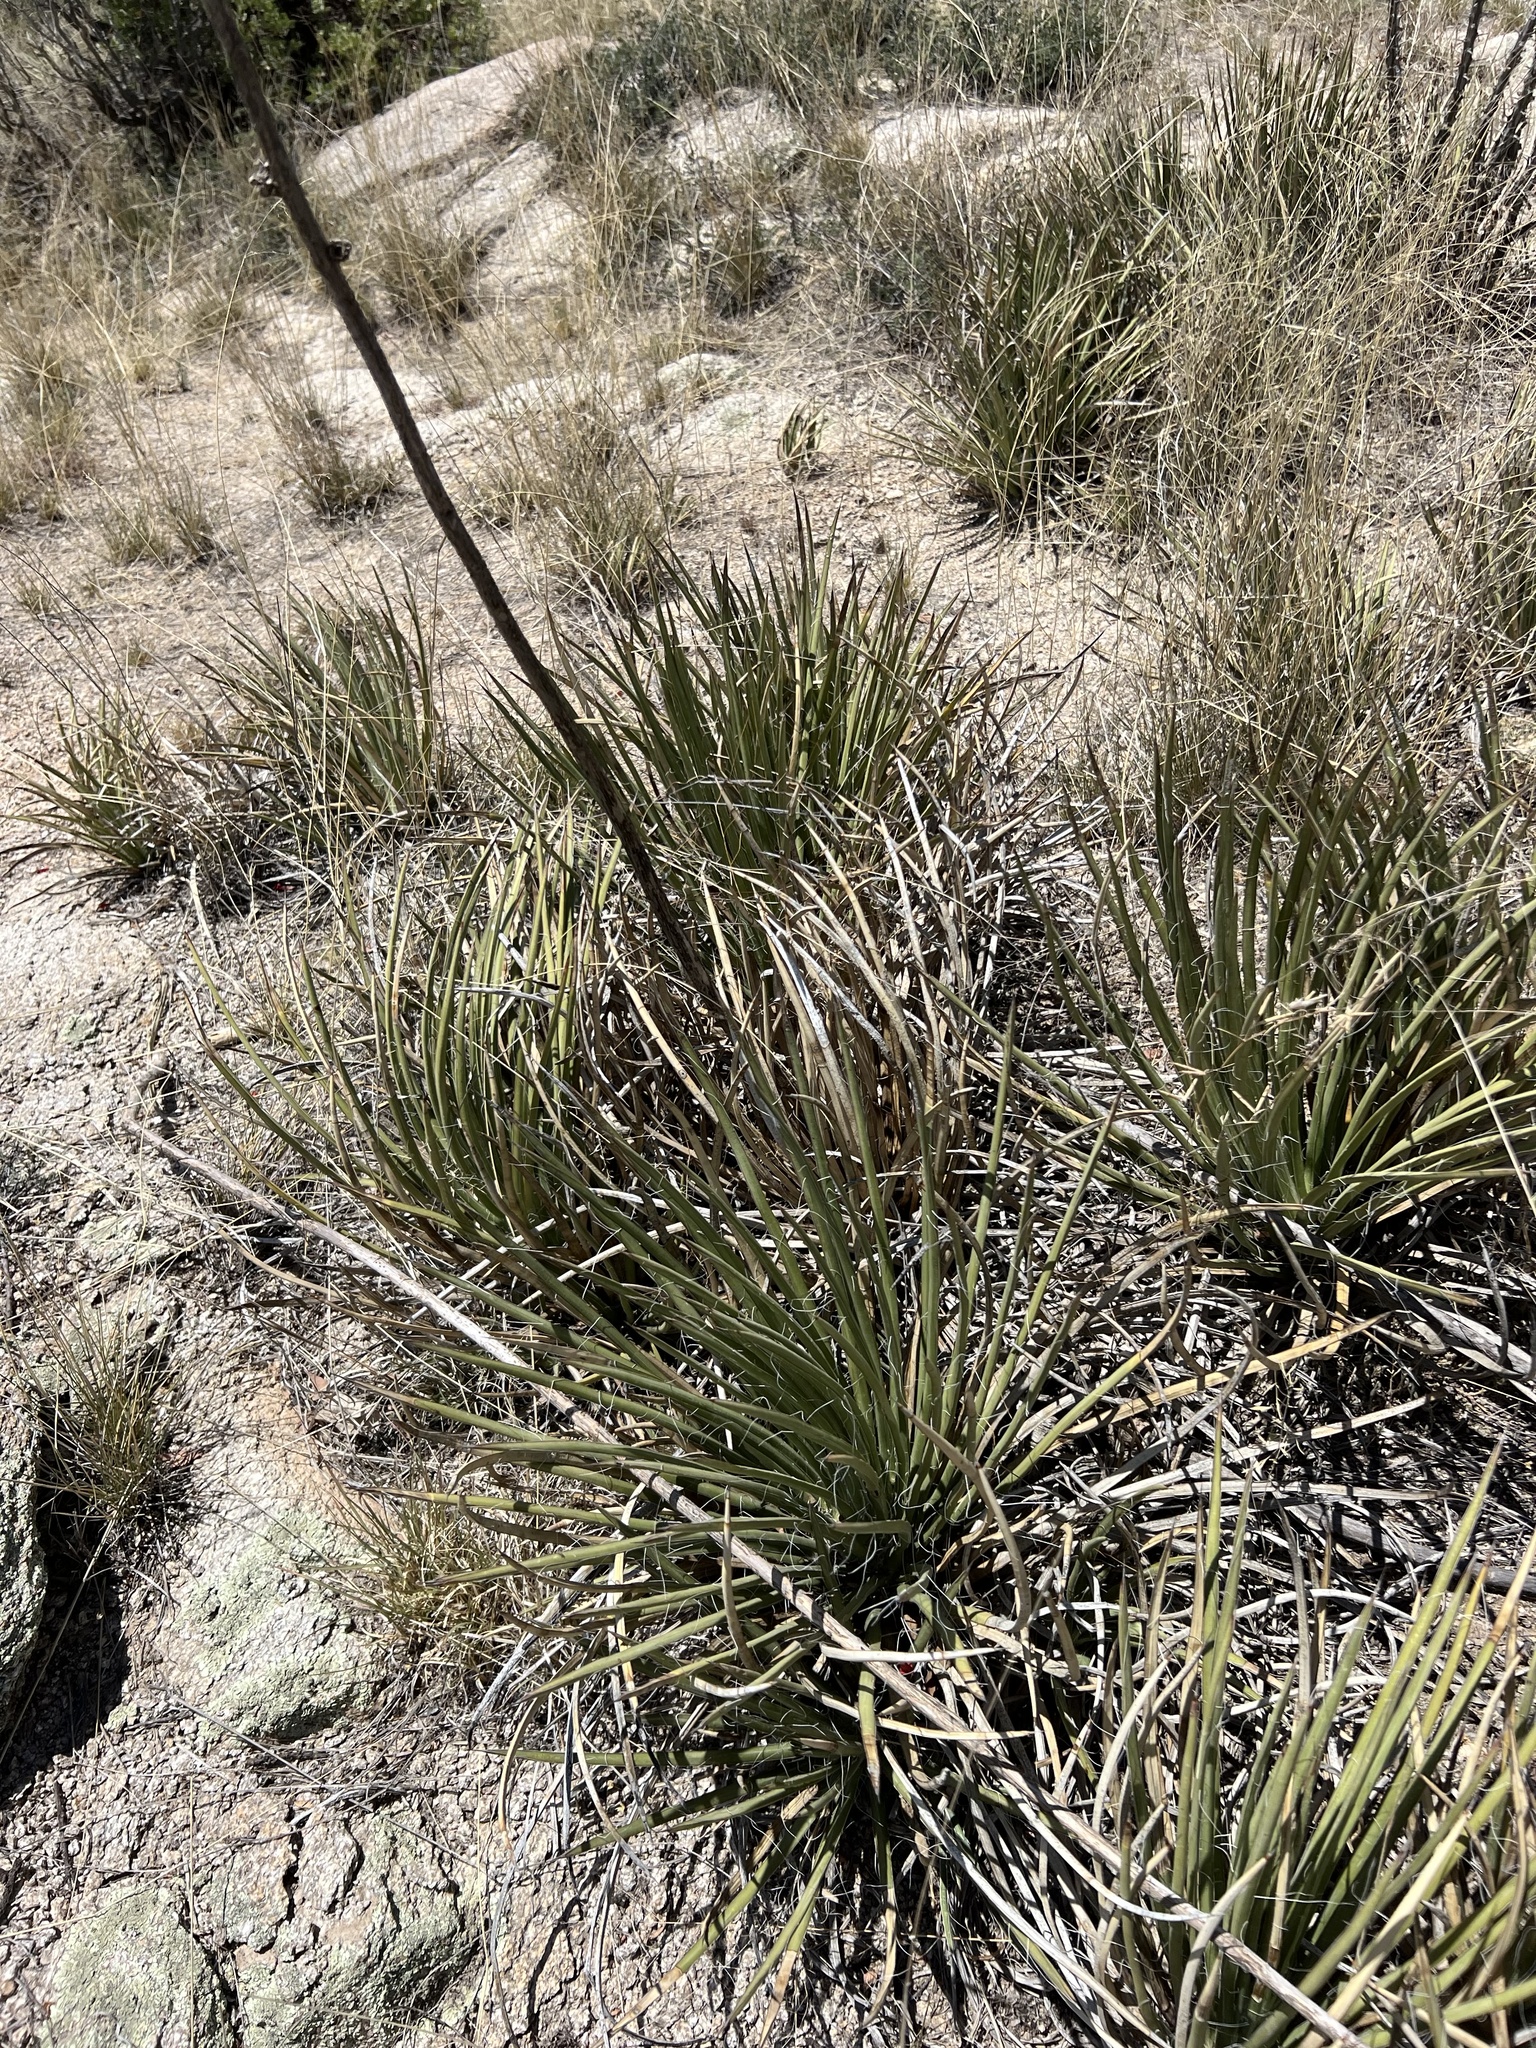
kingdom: Plantae
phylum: Tracheophyta
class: Liliopsida
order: Asparagales
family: Asparagaceae
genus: Agave
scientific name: Agave schottii
